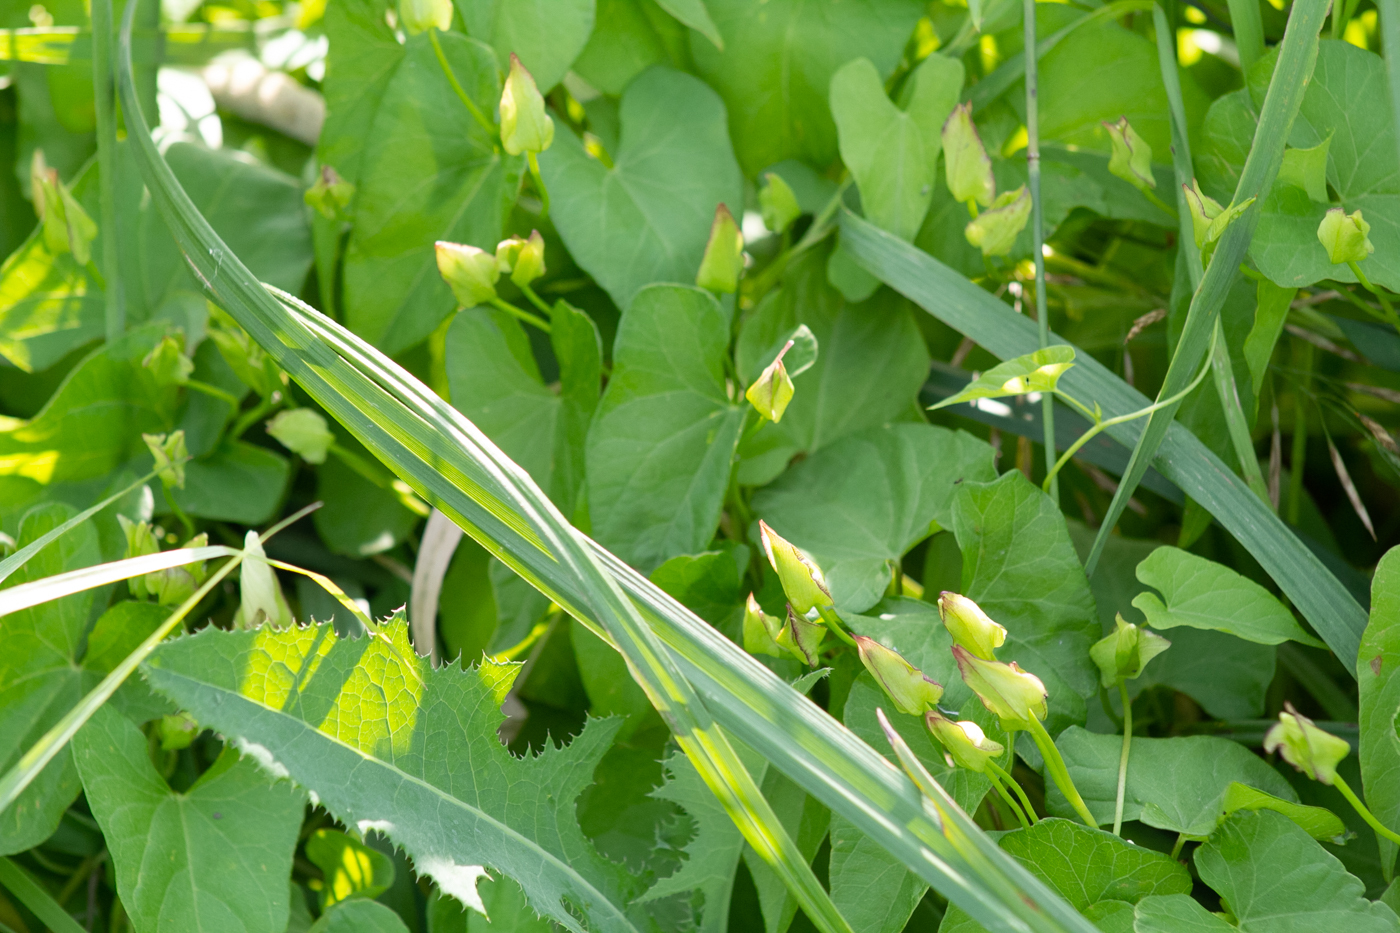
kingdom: Plantae
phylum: Tracheophyta
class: Magnoliopsida
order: Solanales
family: Convolvulaceae
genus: Calystegia
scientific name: Calystegia sepium
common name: Hedge bindweed
